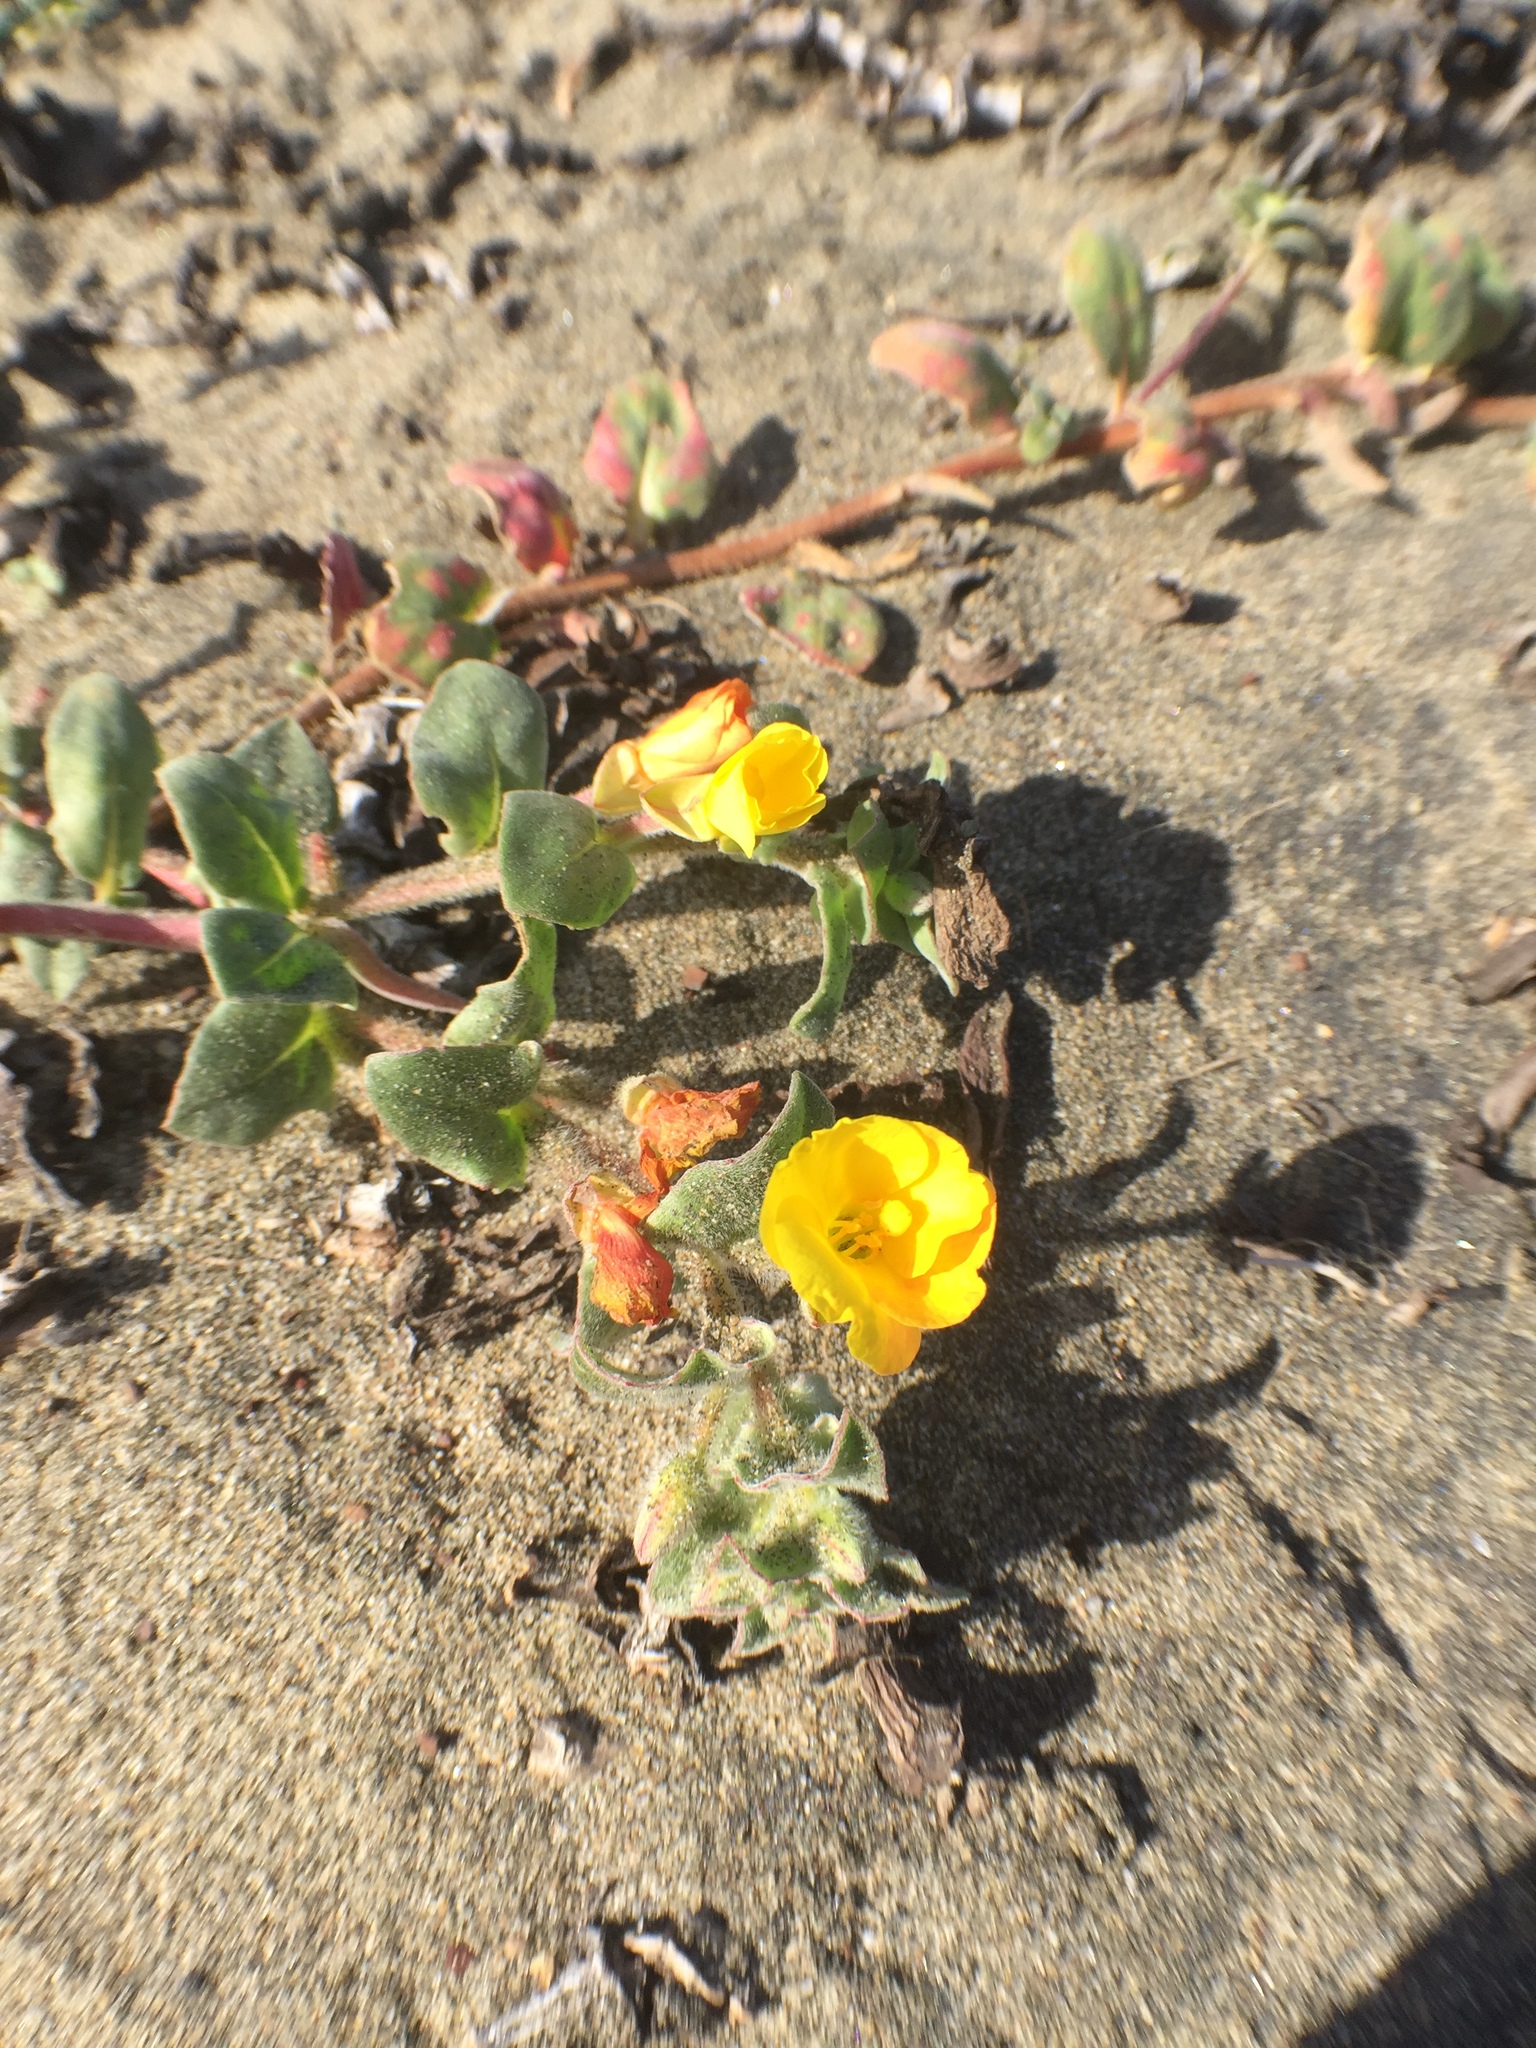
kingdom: Plantae
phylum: Tracheophyta
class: Magnoliopsida
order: Myrtales
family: Onagraceae
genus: Camissoniopsis
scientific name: Camissoniopsis cheiranthifolia
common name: Beach suncup
